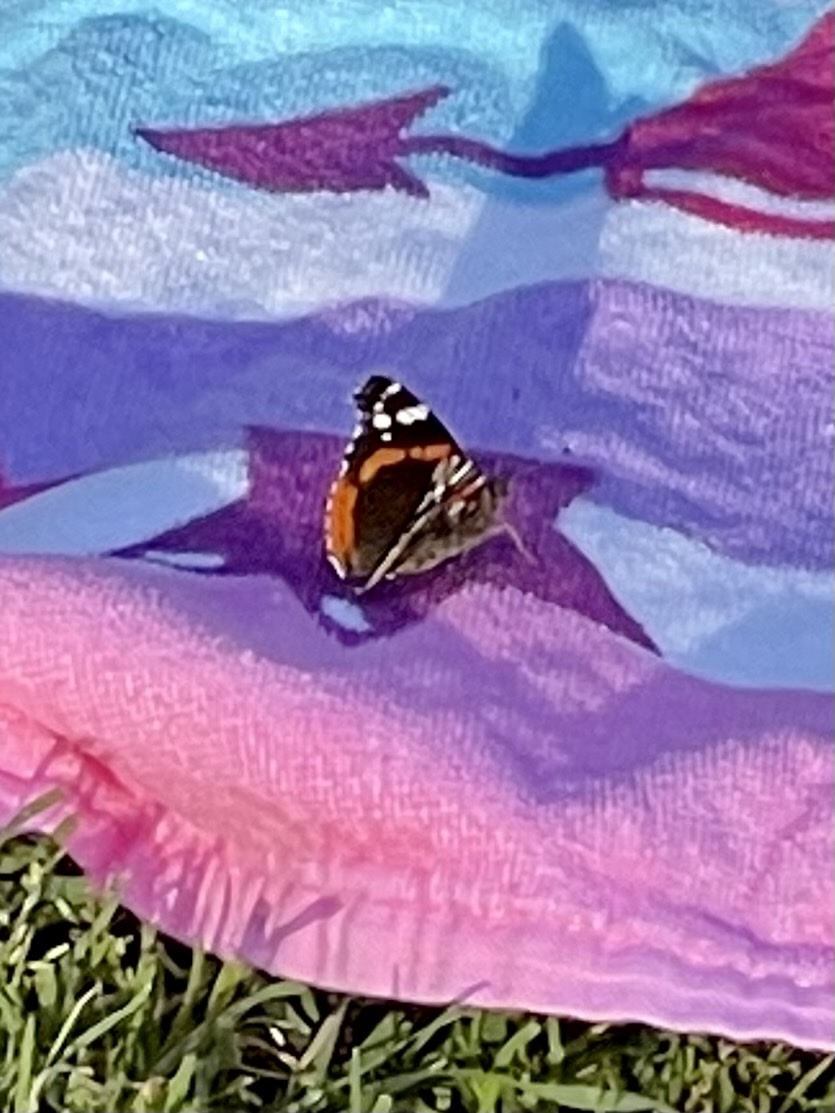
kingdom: Animalia
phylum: Arthropoda
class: Insecta
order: Lepidoptera
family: Nymphalidae
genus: Vanessa
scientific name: Vanessa atalanta
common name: Red admiral
